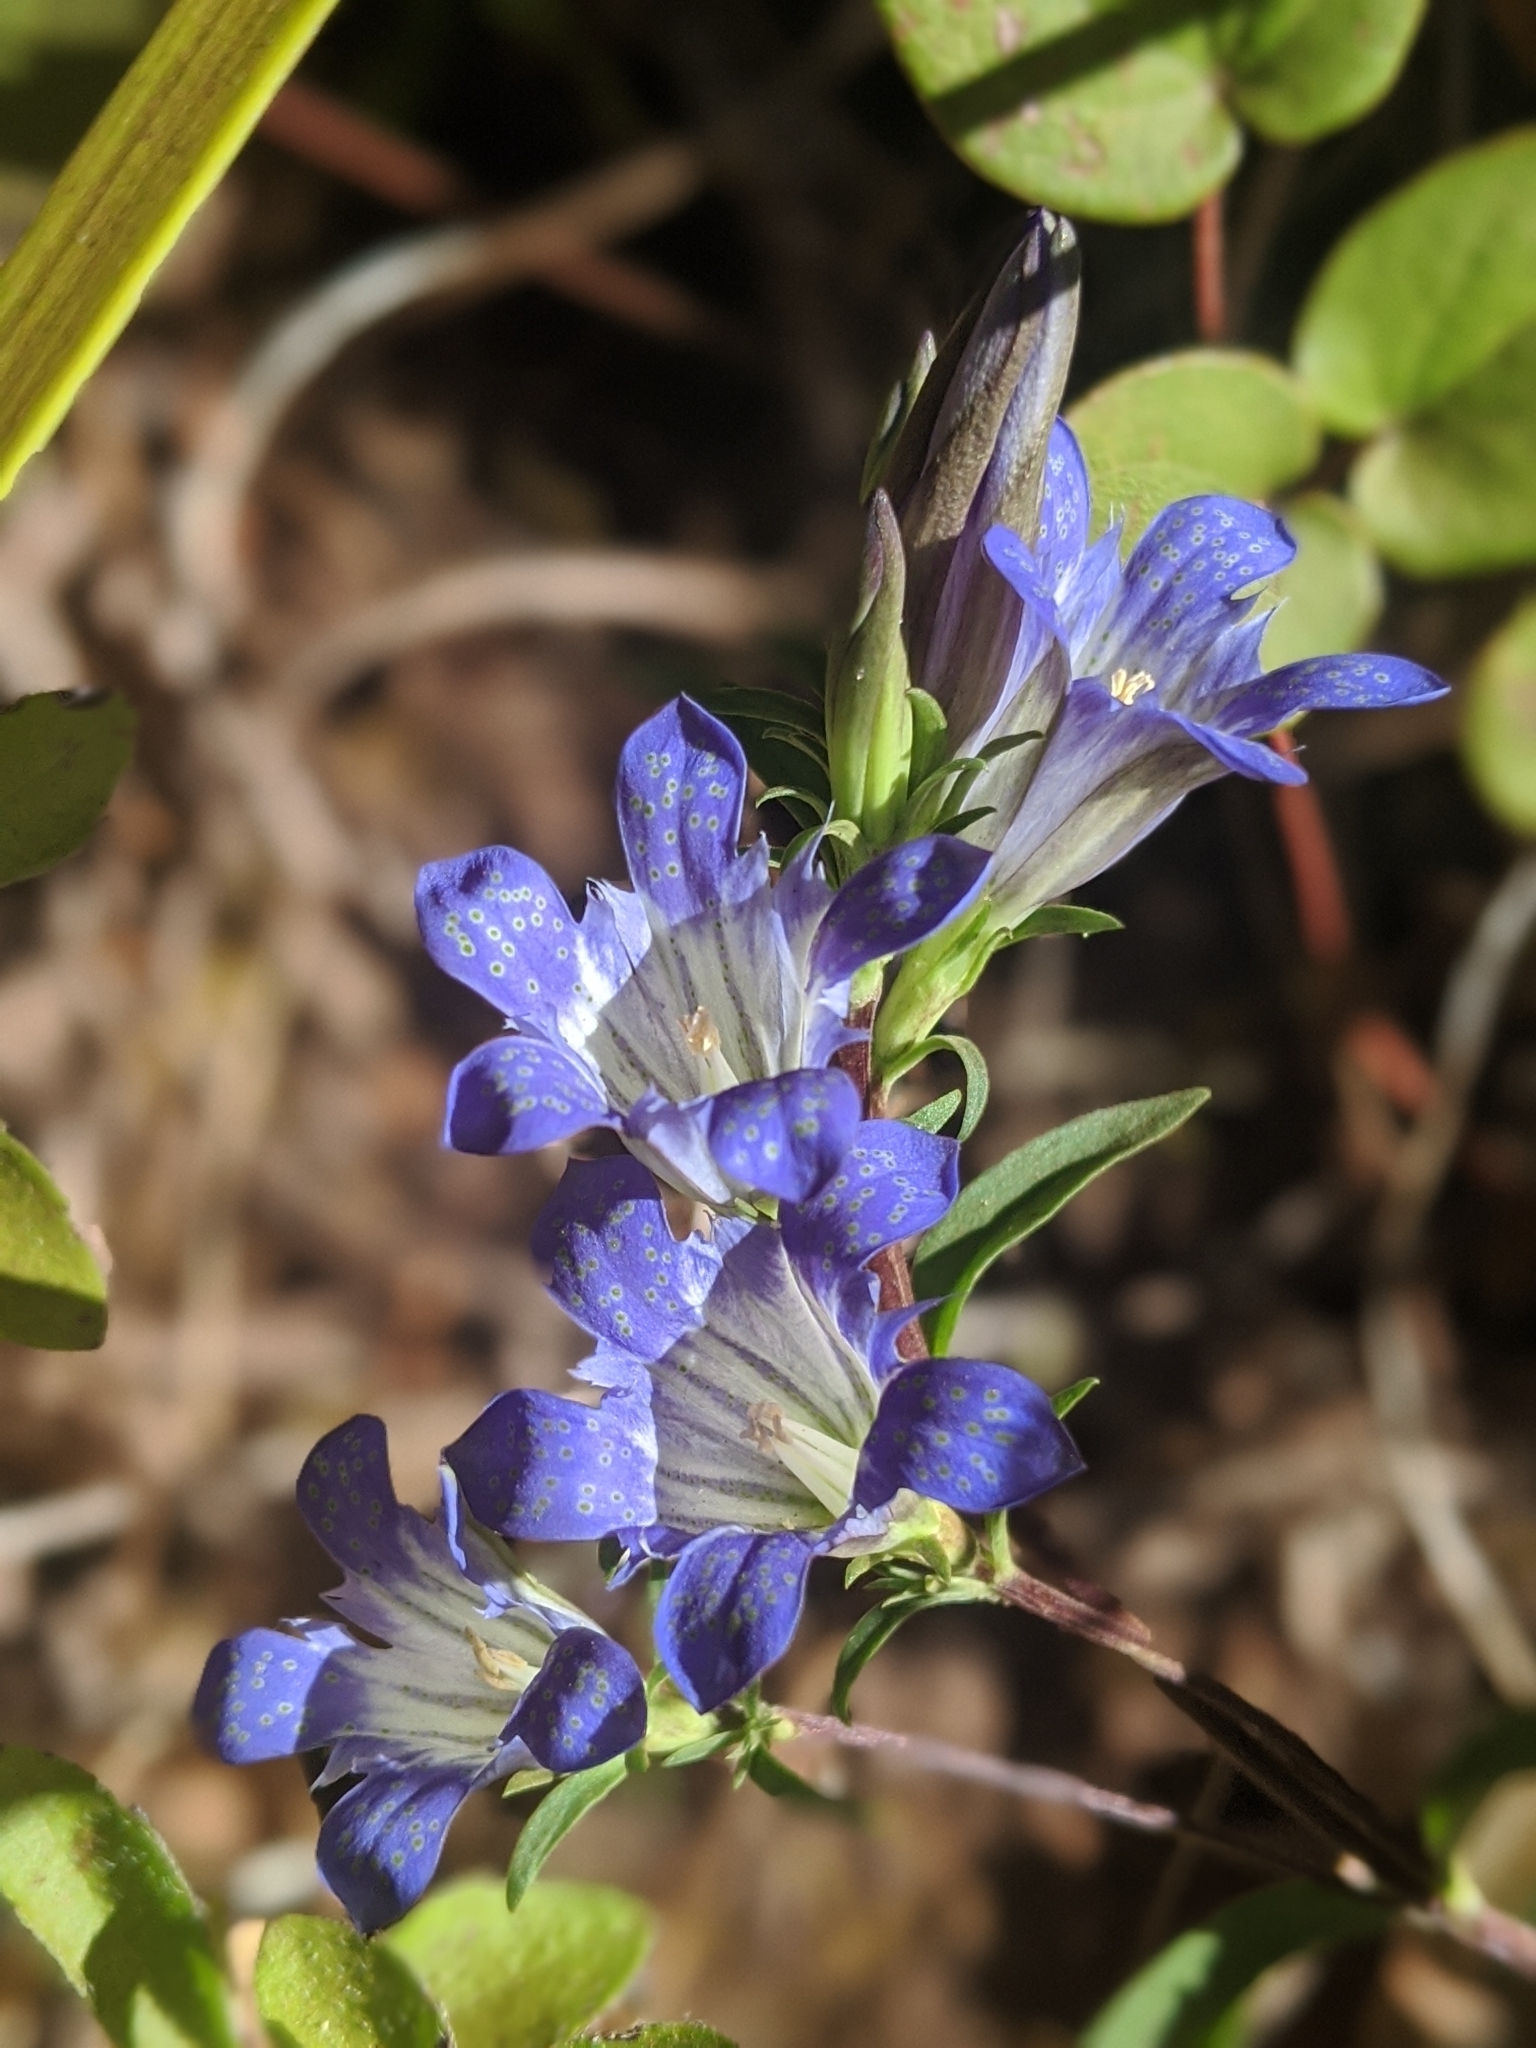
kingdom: Plantae
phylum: Tracheophyta
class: Magnoliopsida
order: Gentianales
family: Gentianaceae
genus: Gentiana
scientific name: Gentiana affinis
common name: Rocky mountain gentian
